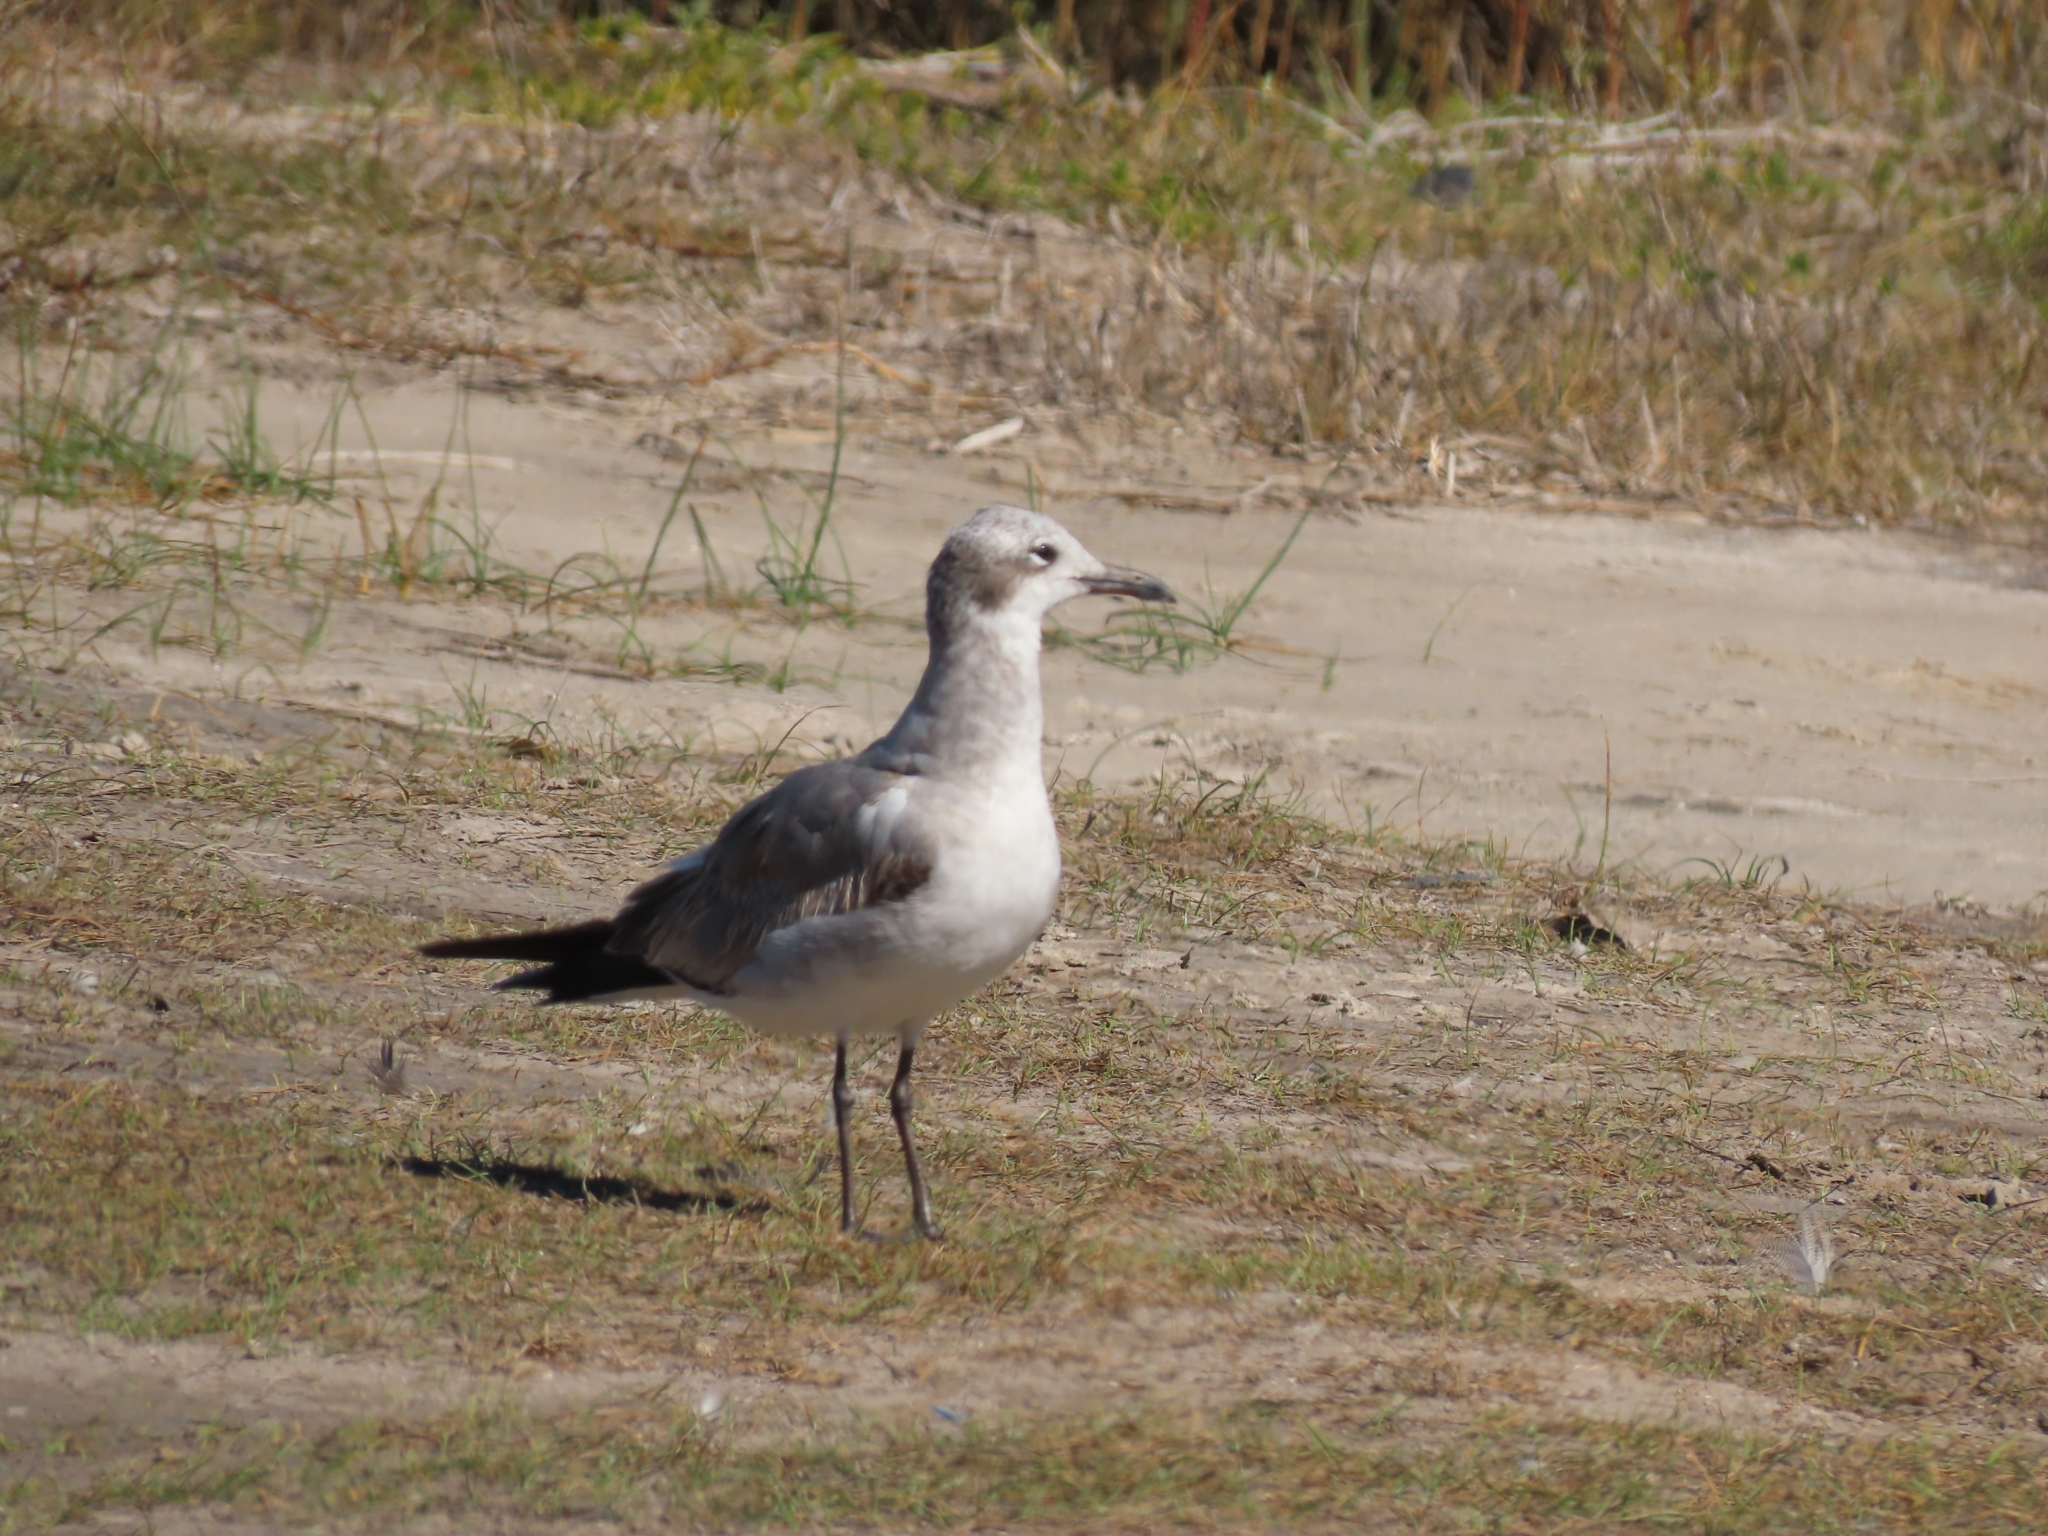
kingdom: Animalia
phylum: Chordata
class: Aves
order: Charadriiformes
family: Laridae
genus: Leucophaeus
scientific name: Leucophaeus atricilla
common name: Laughing gull
